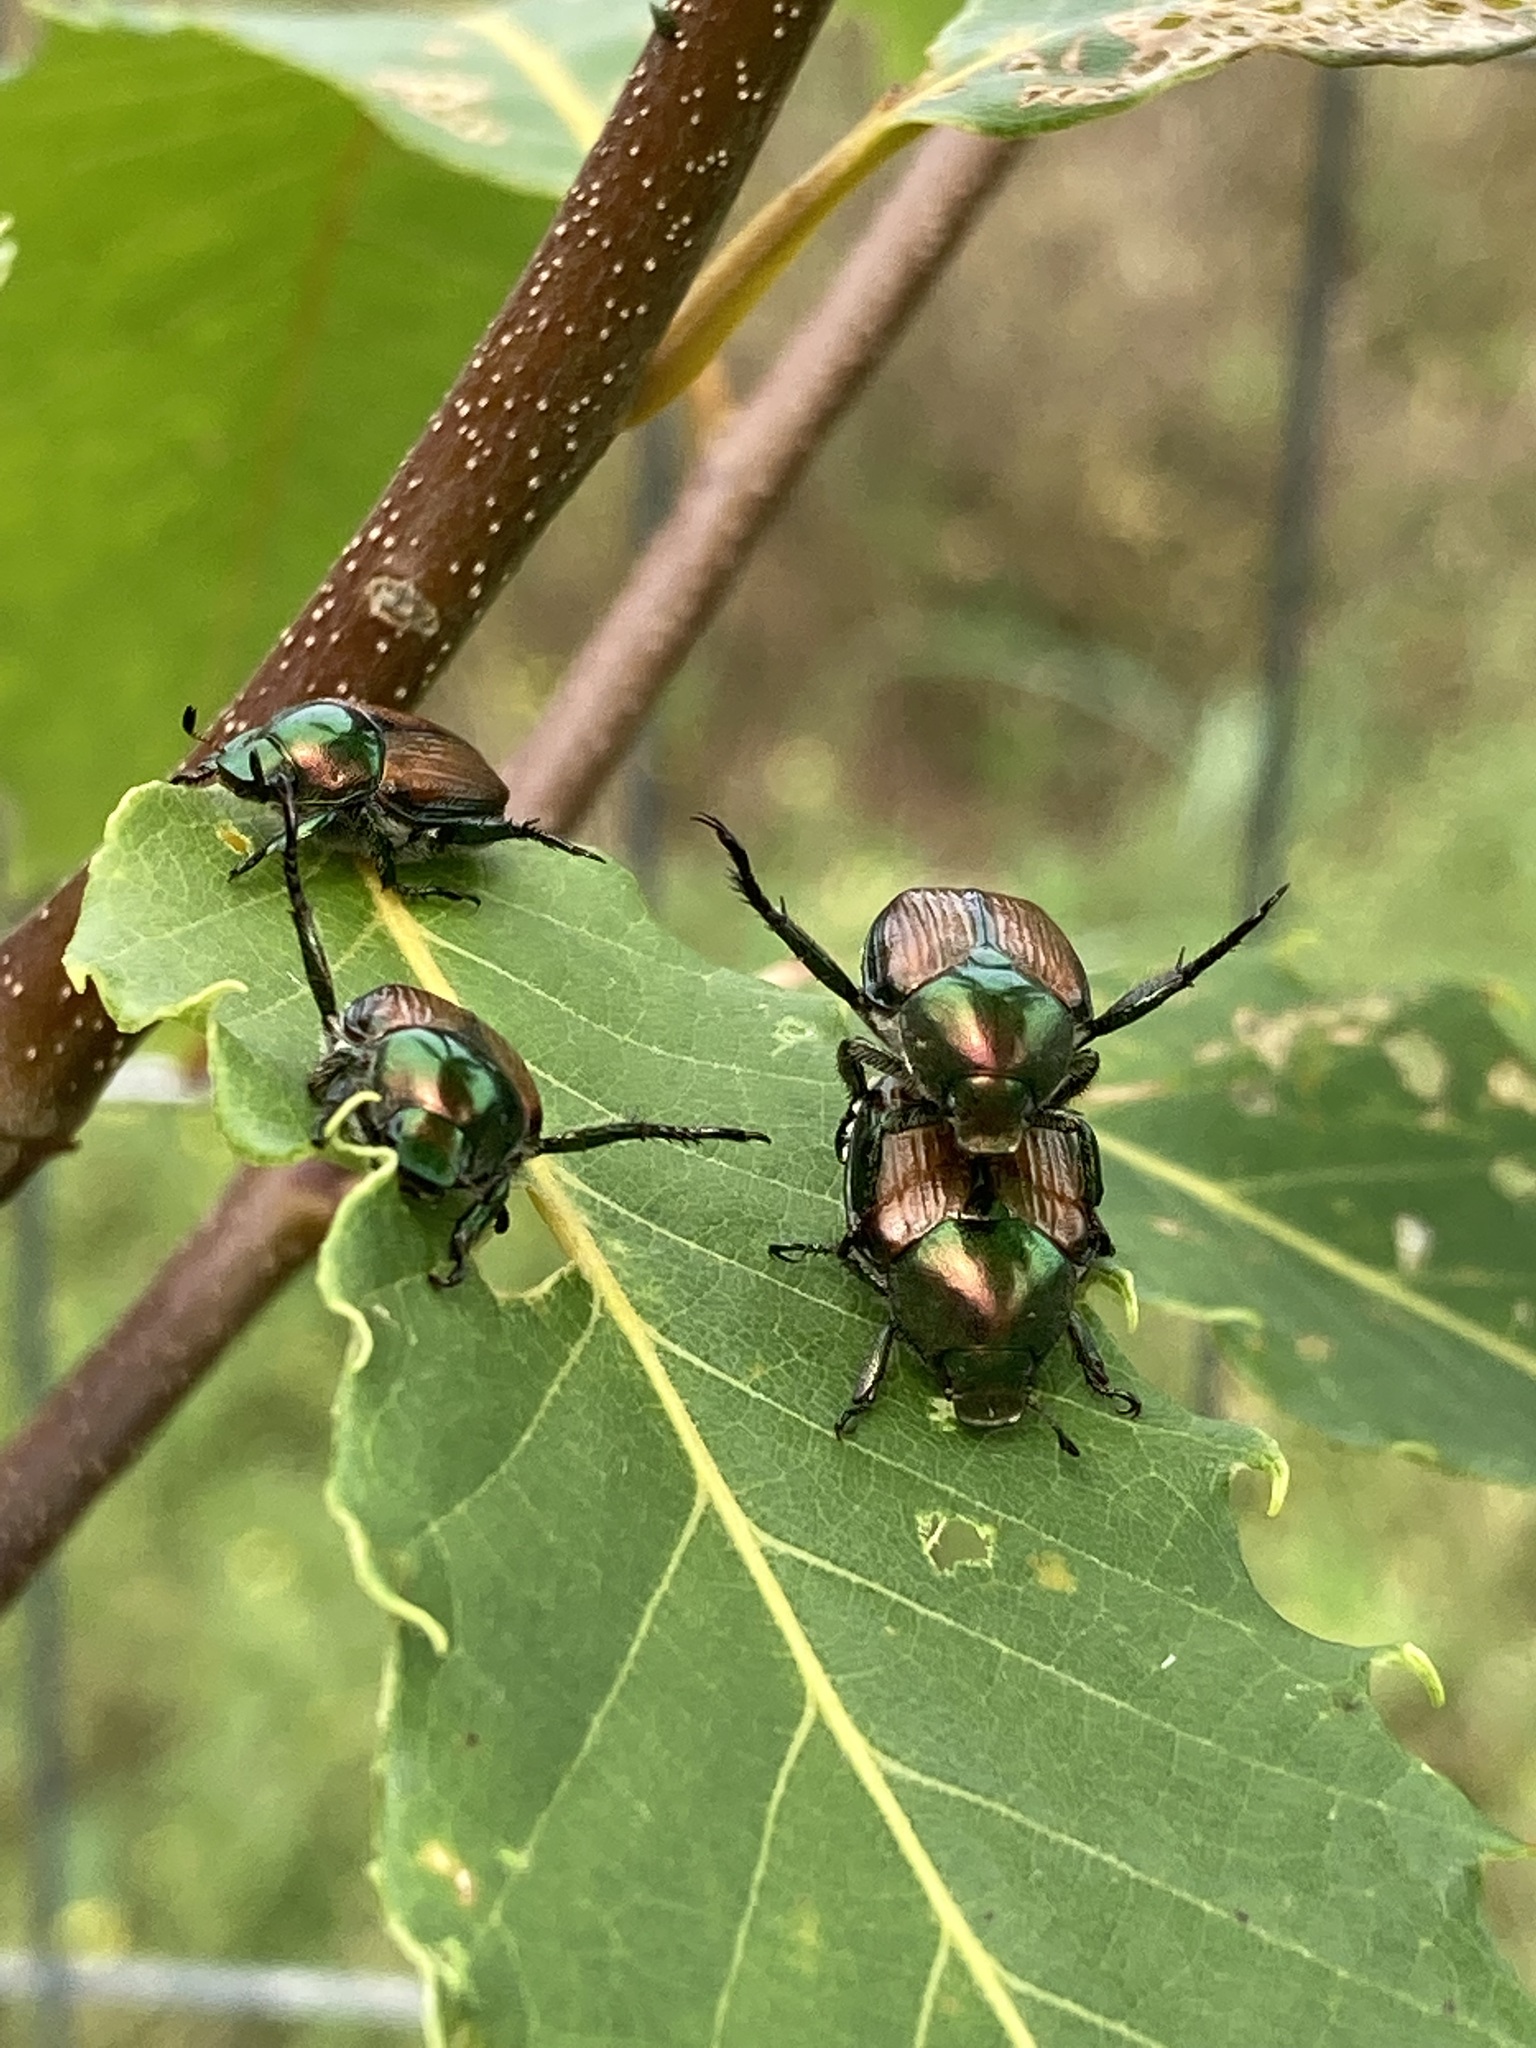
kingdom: Animalia
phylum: Arthropoda
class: Insecta
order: Coleoptera
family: Scarabaeidae
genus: Popillia
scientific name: Popillia japonica
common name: Japanese beetle
